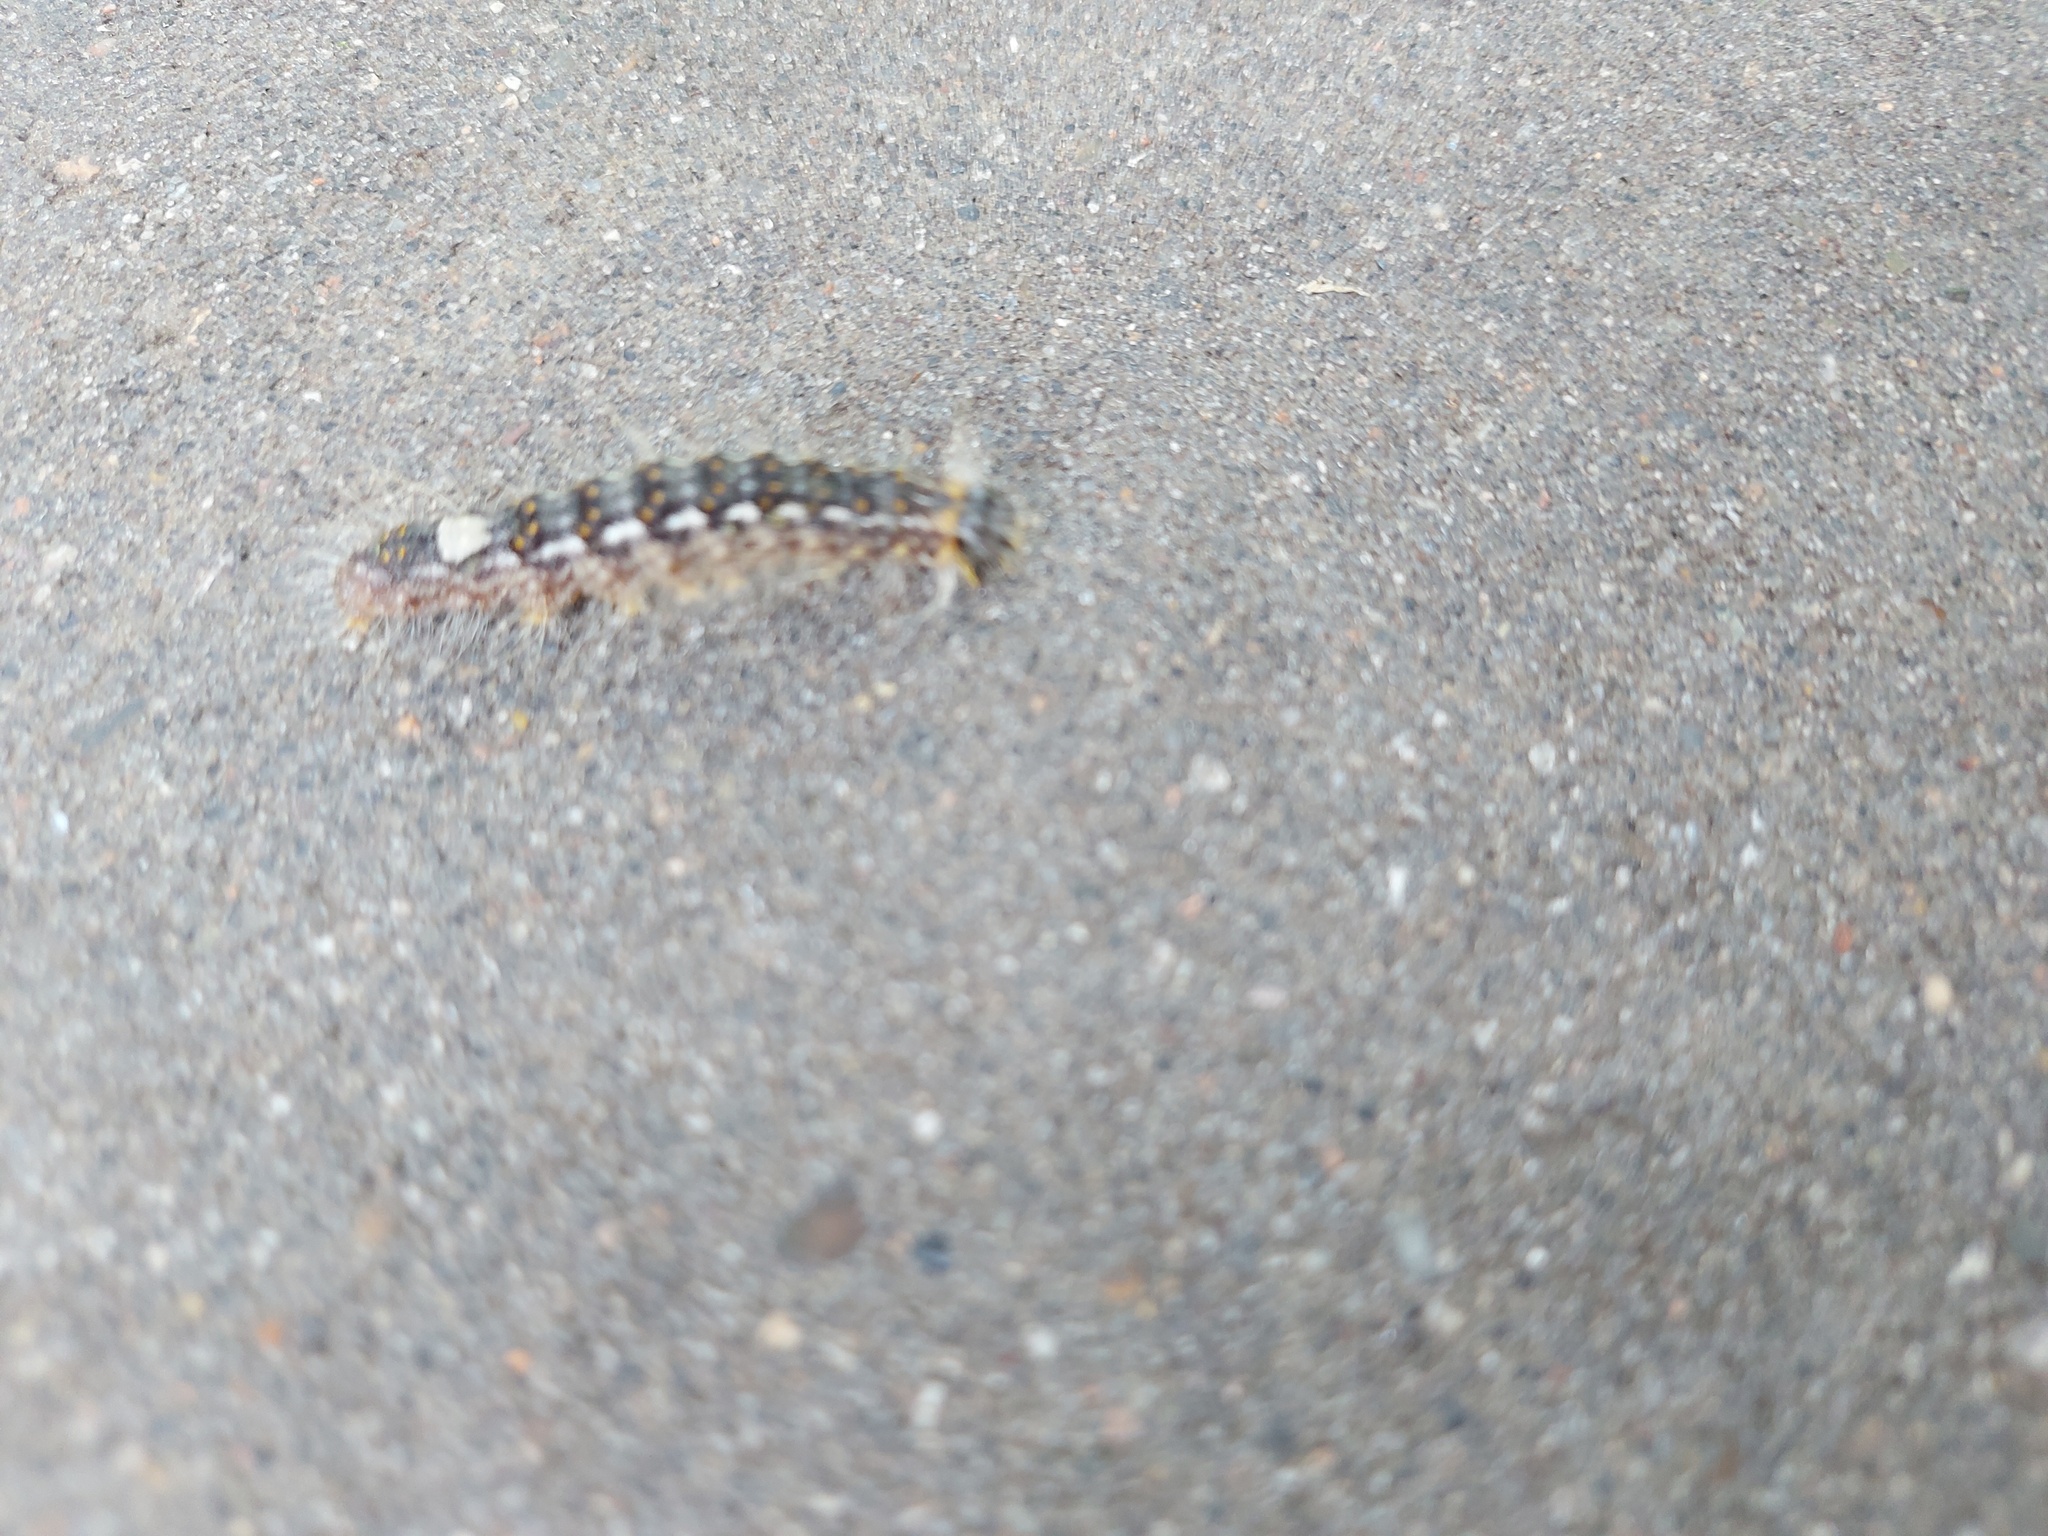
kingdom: Animalia
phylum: Arthropoda
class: Insecta
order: Lepidoptera
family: Noctuidae
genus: Acronicta
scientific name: Acronicta megacephala
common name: Poplar grey
